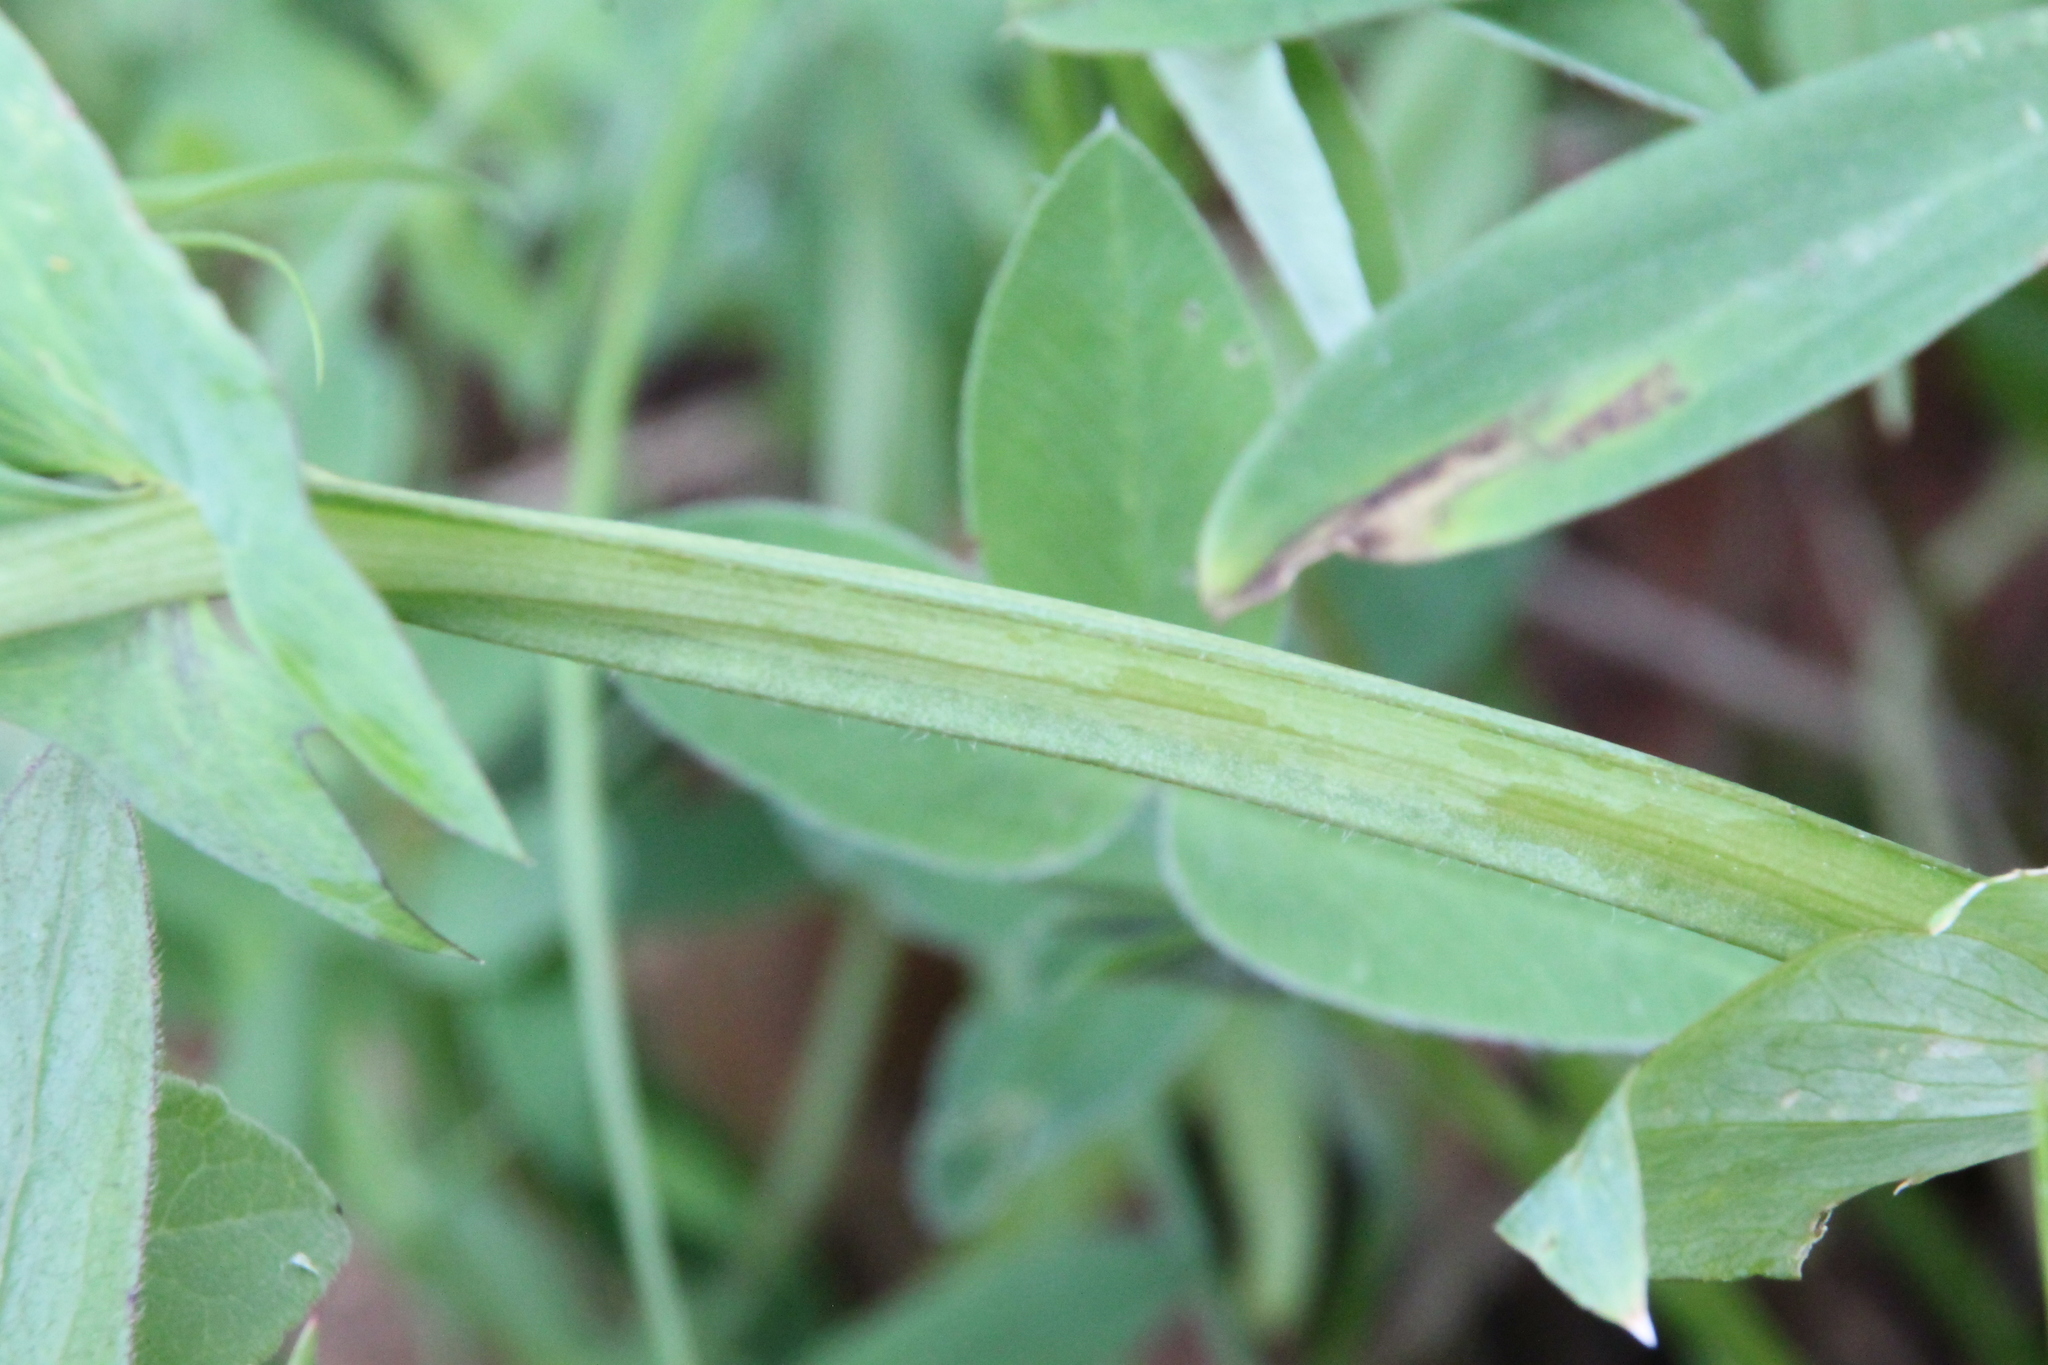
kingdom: Plantae
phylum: Tracheophyta
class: Magnoliopsida
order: Fabales
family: Fabaceae
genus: Lathyrus
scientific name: Lathyrus pisiformis
